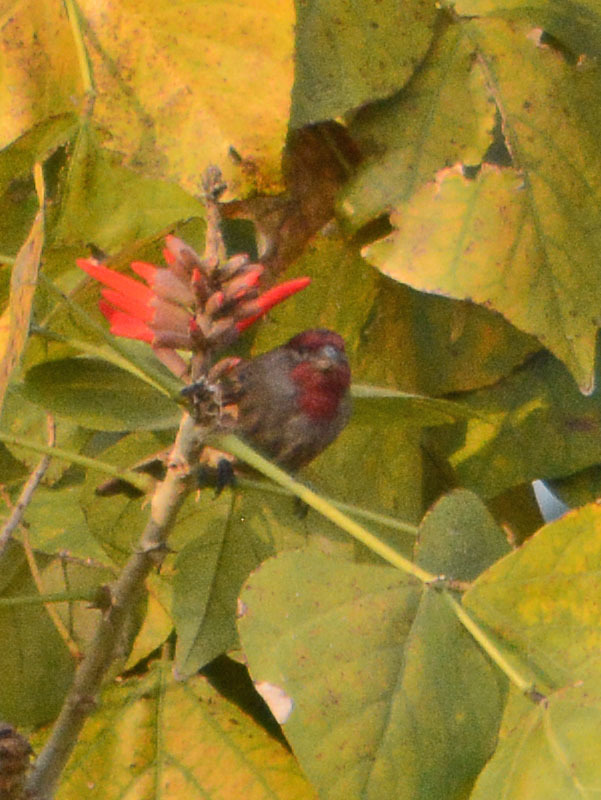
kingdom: Animalia
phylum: Chordata
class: Aves
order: Passeriformes
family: Fringillidae
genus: Haemorhous
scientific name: Haemorhous mexicanus
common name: House finch
